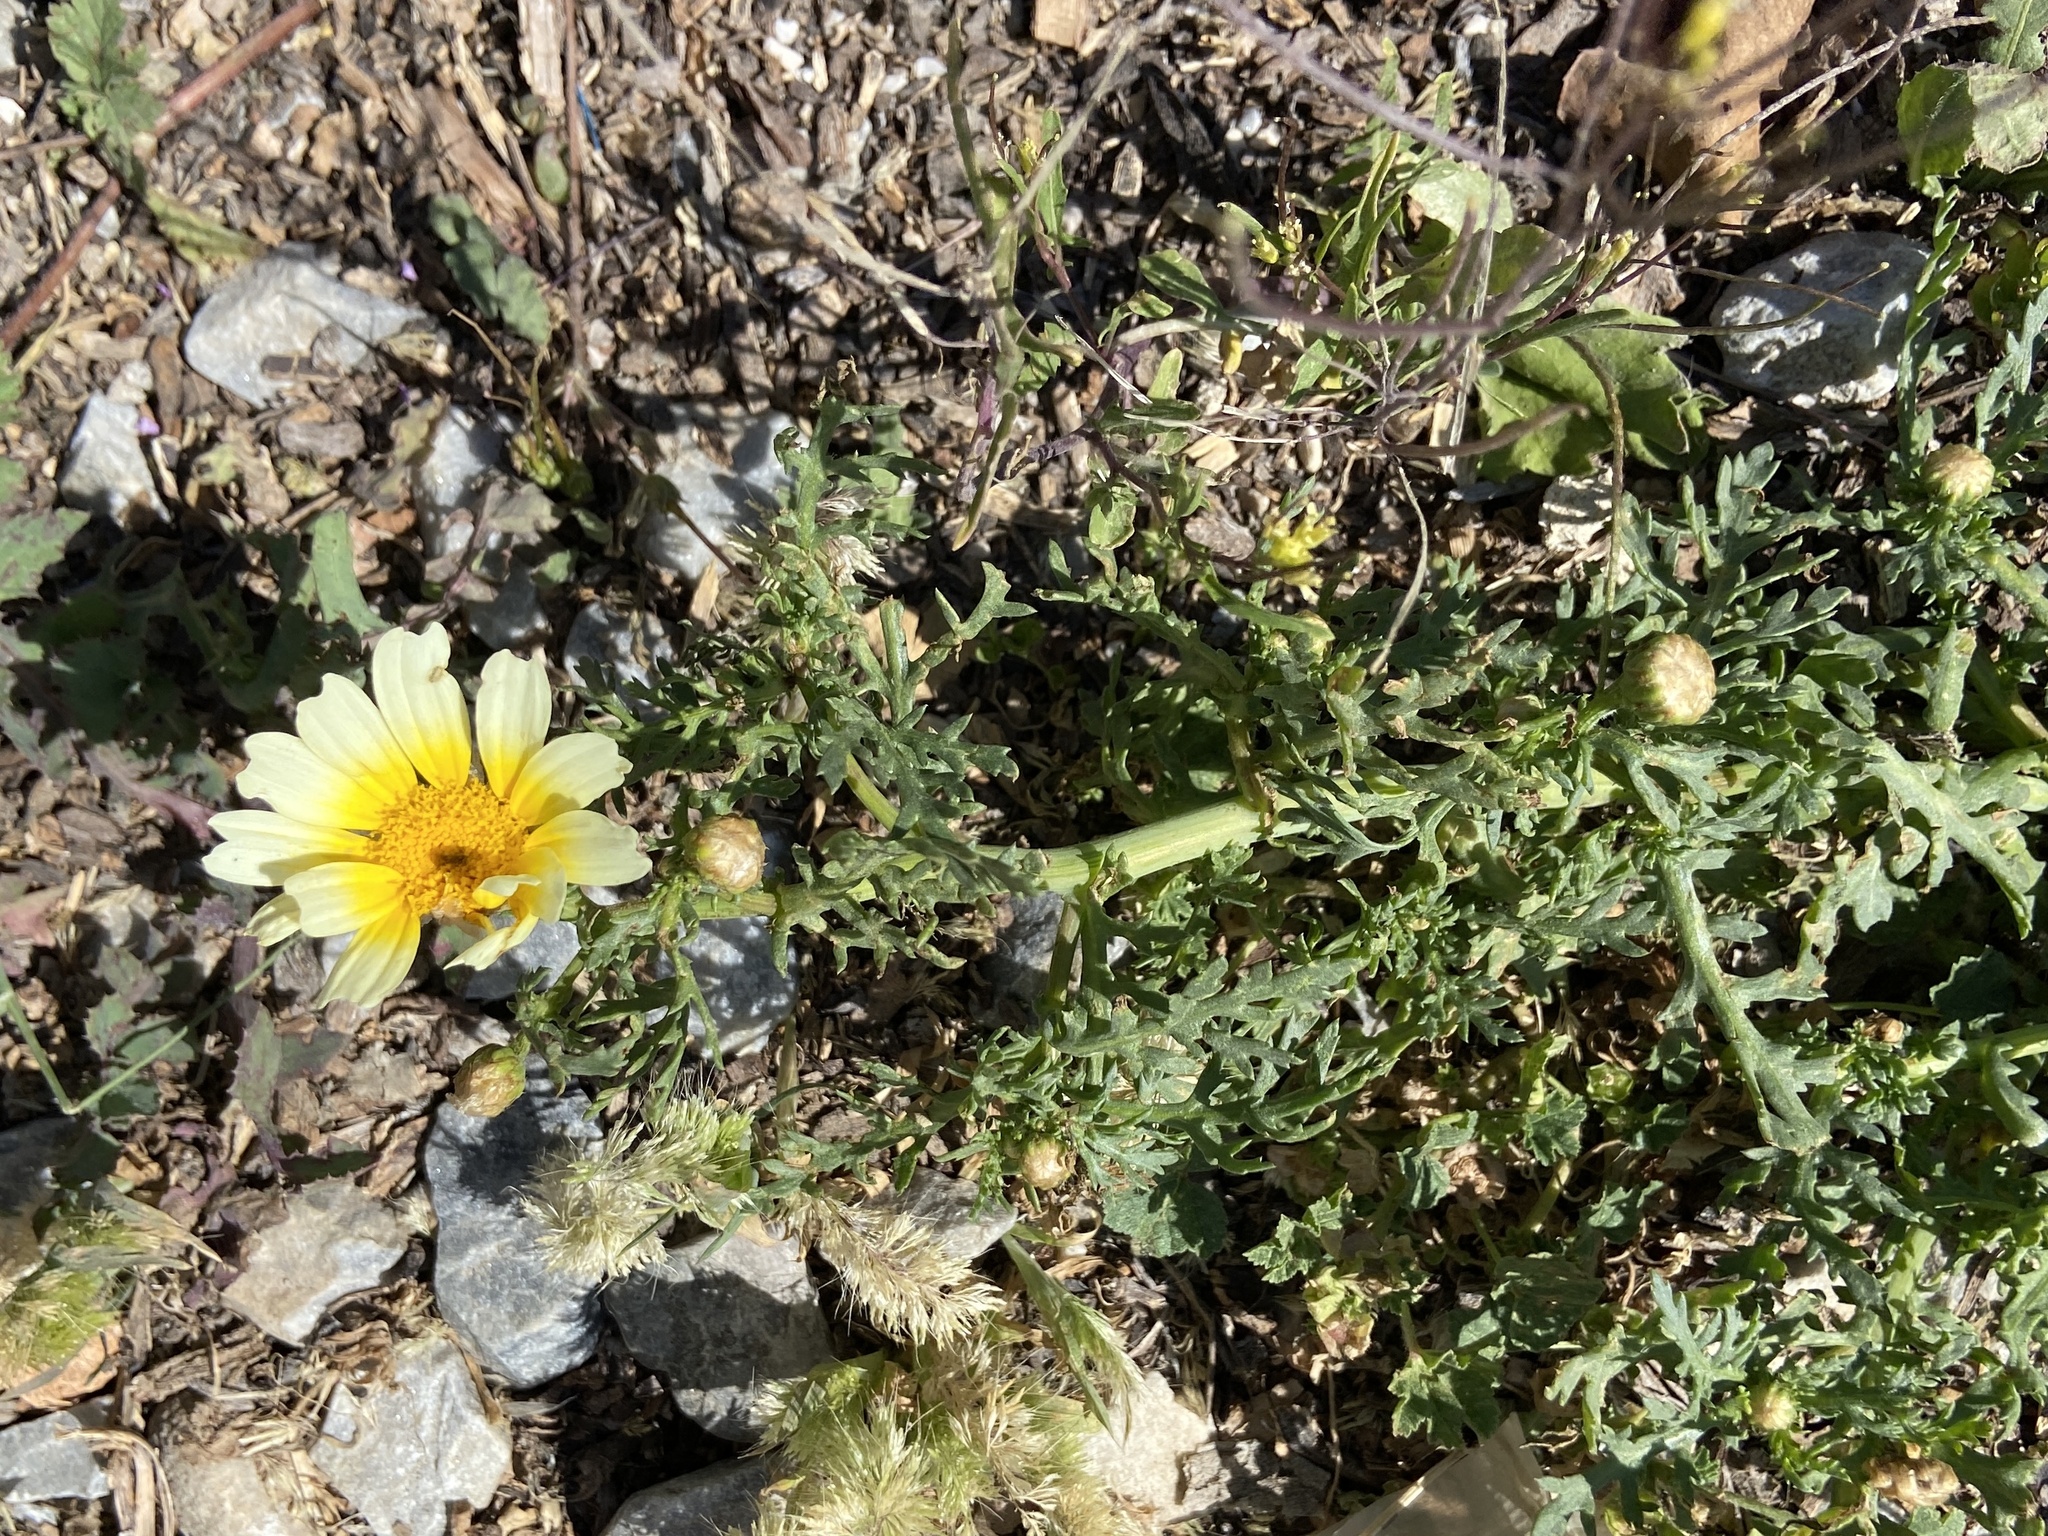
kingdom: Plantae
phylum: Tracheophyta
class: Magnoliopsida
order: Asterales
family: Asteraceae
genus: Glebionis
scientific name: Glebionis coronaria
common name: Crowndaisy
